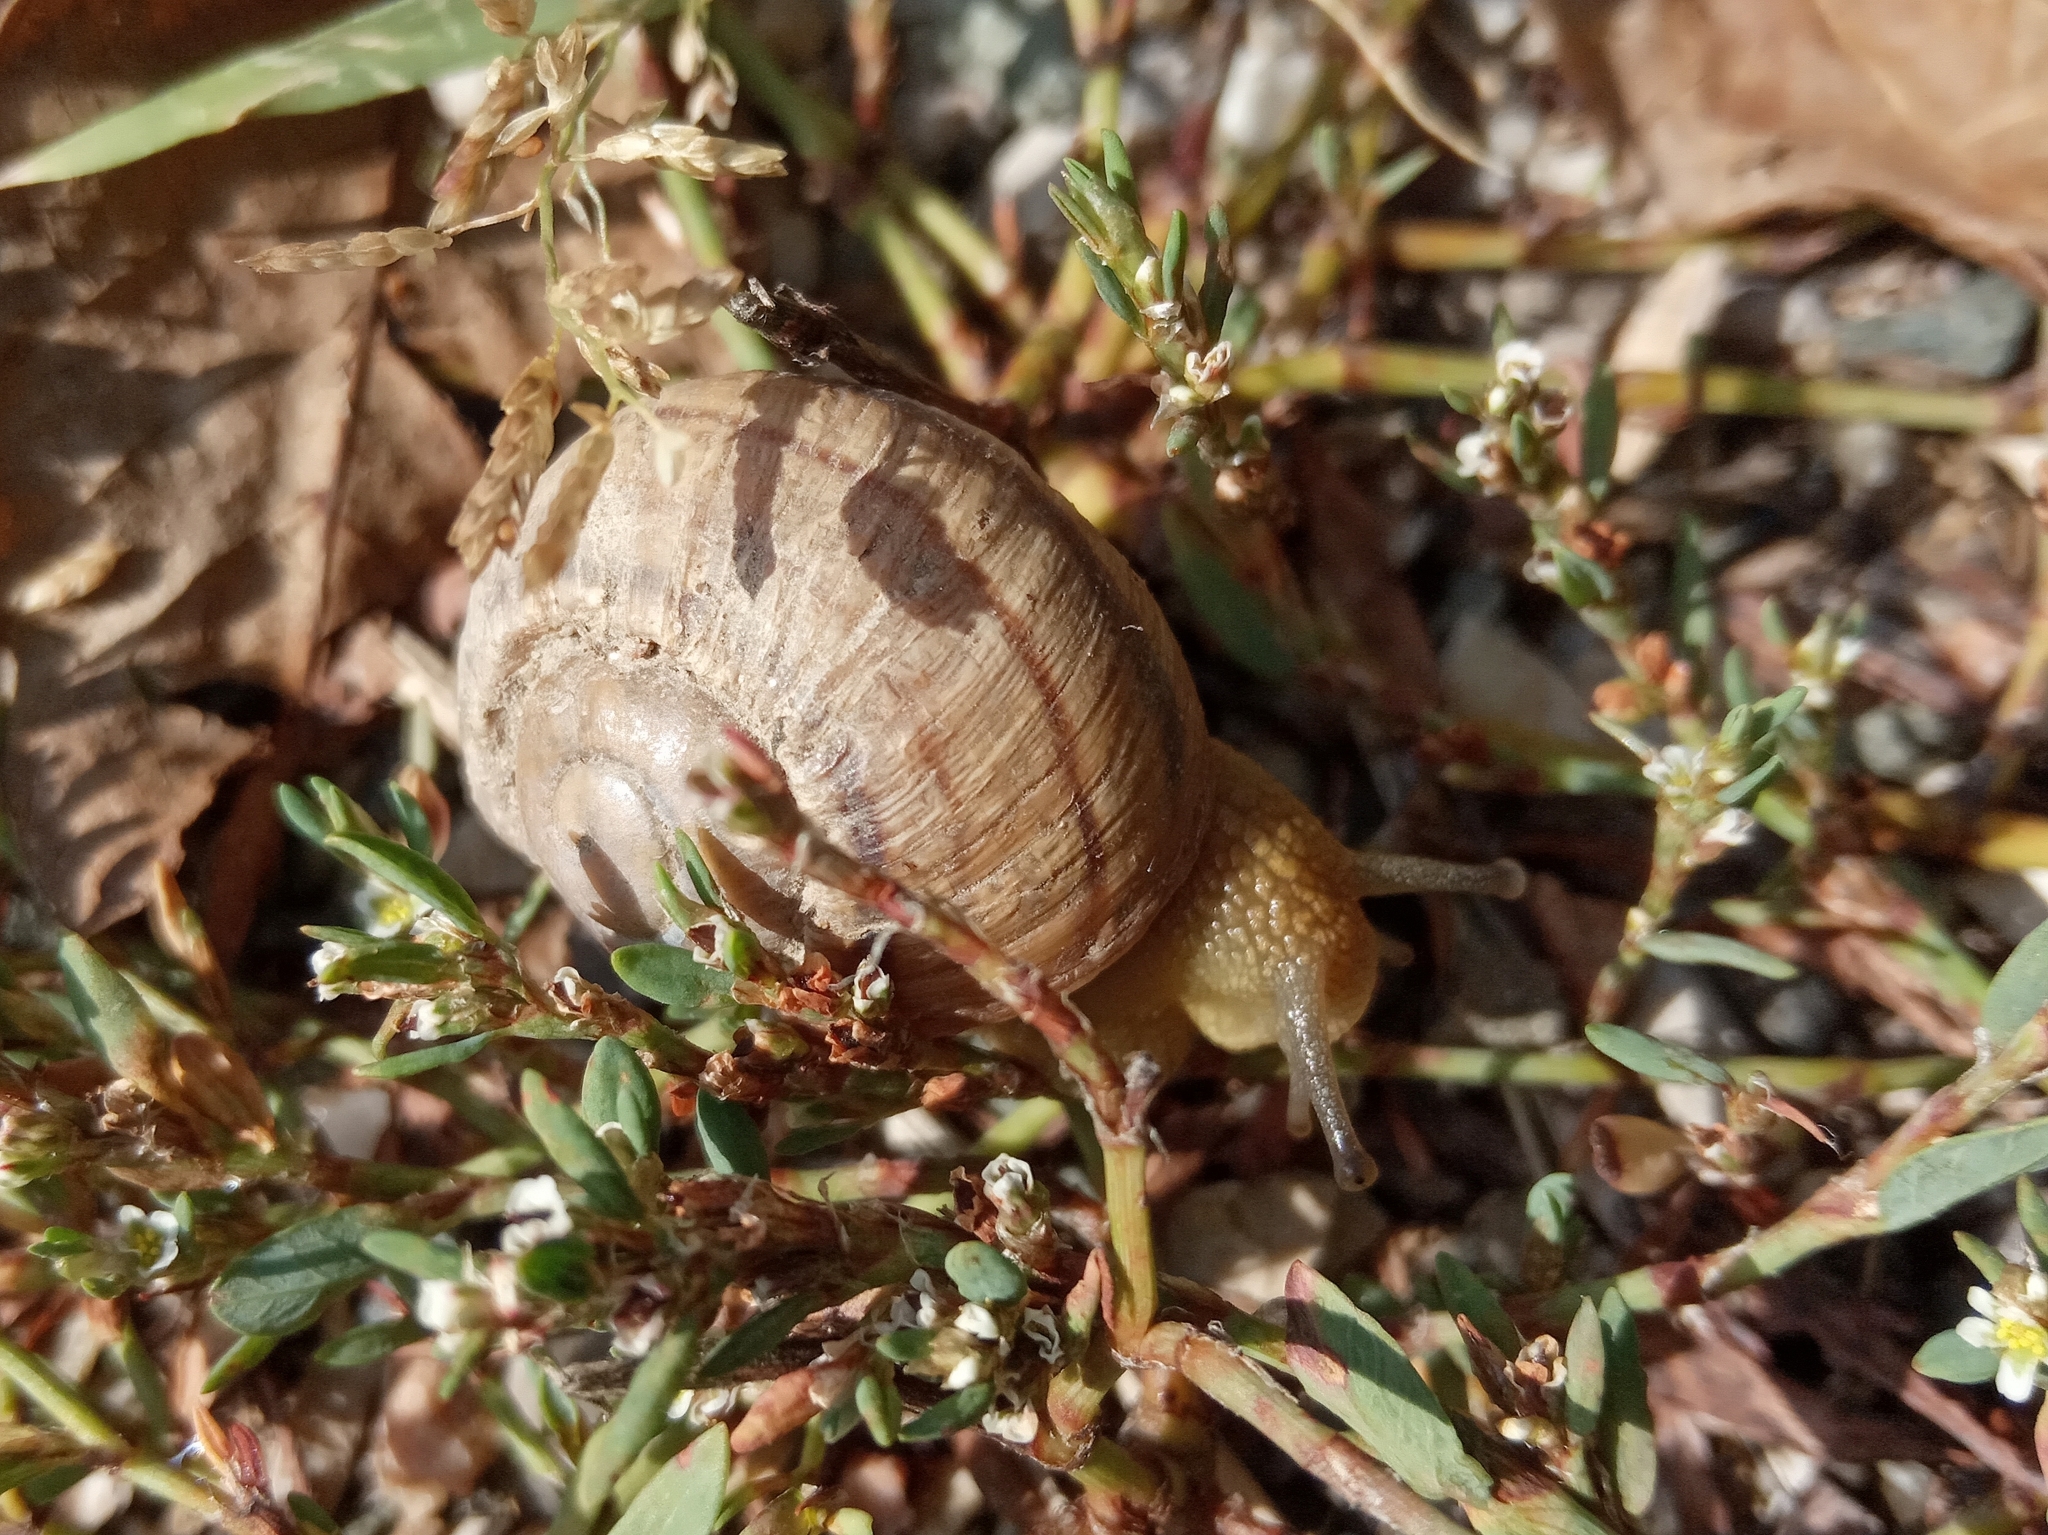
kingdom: Animalia
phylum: Mollusca
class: Gastropoda
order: Stylommatophora
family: Helicidae
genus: Helix
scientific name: Helix albescens
